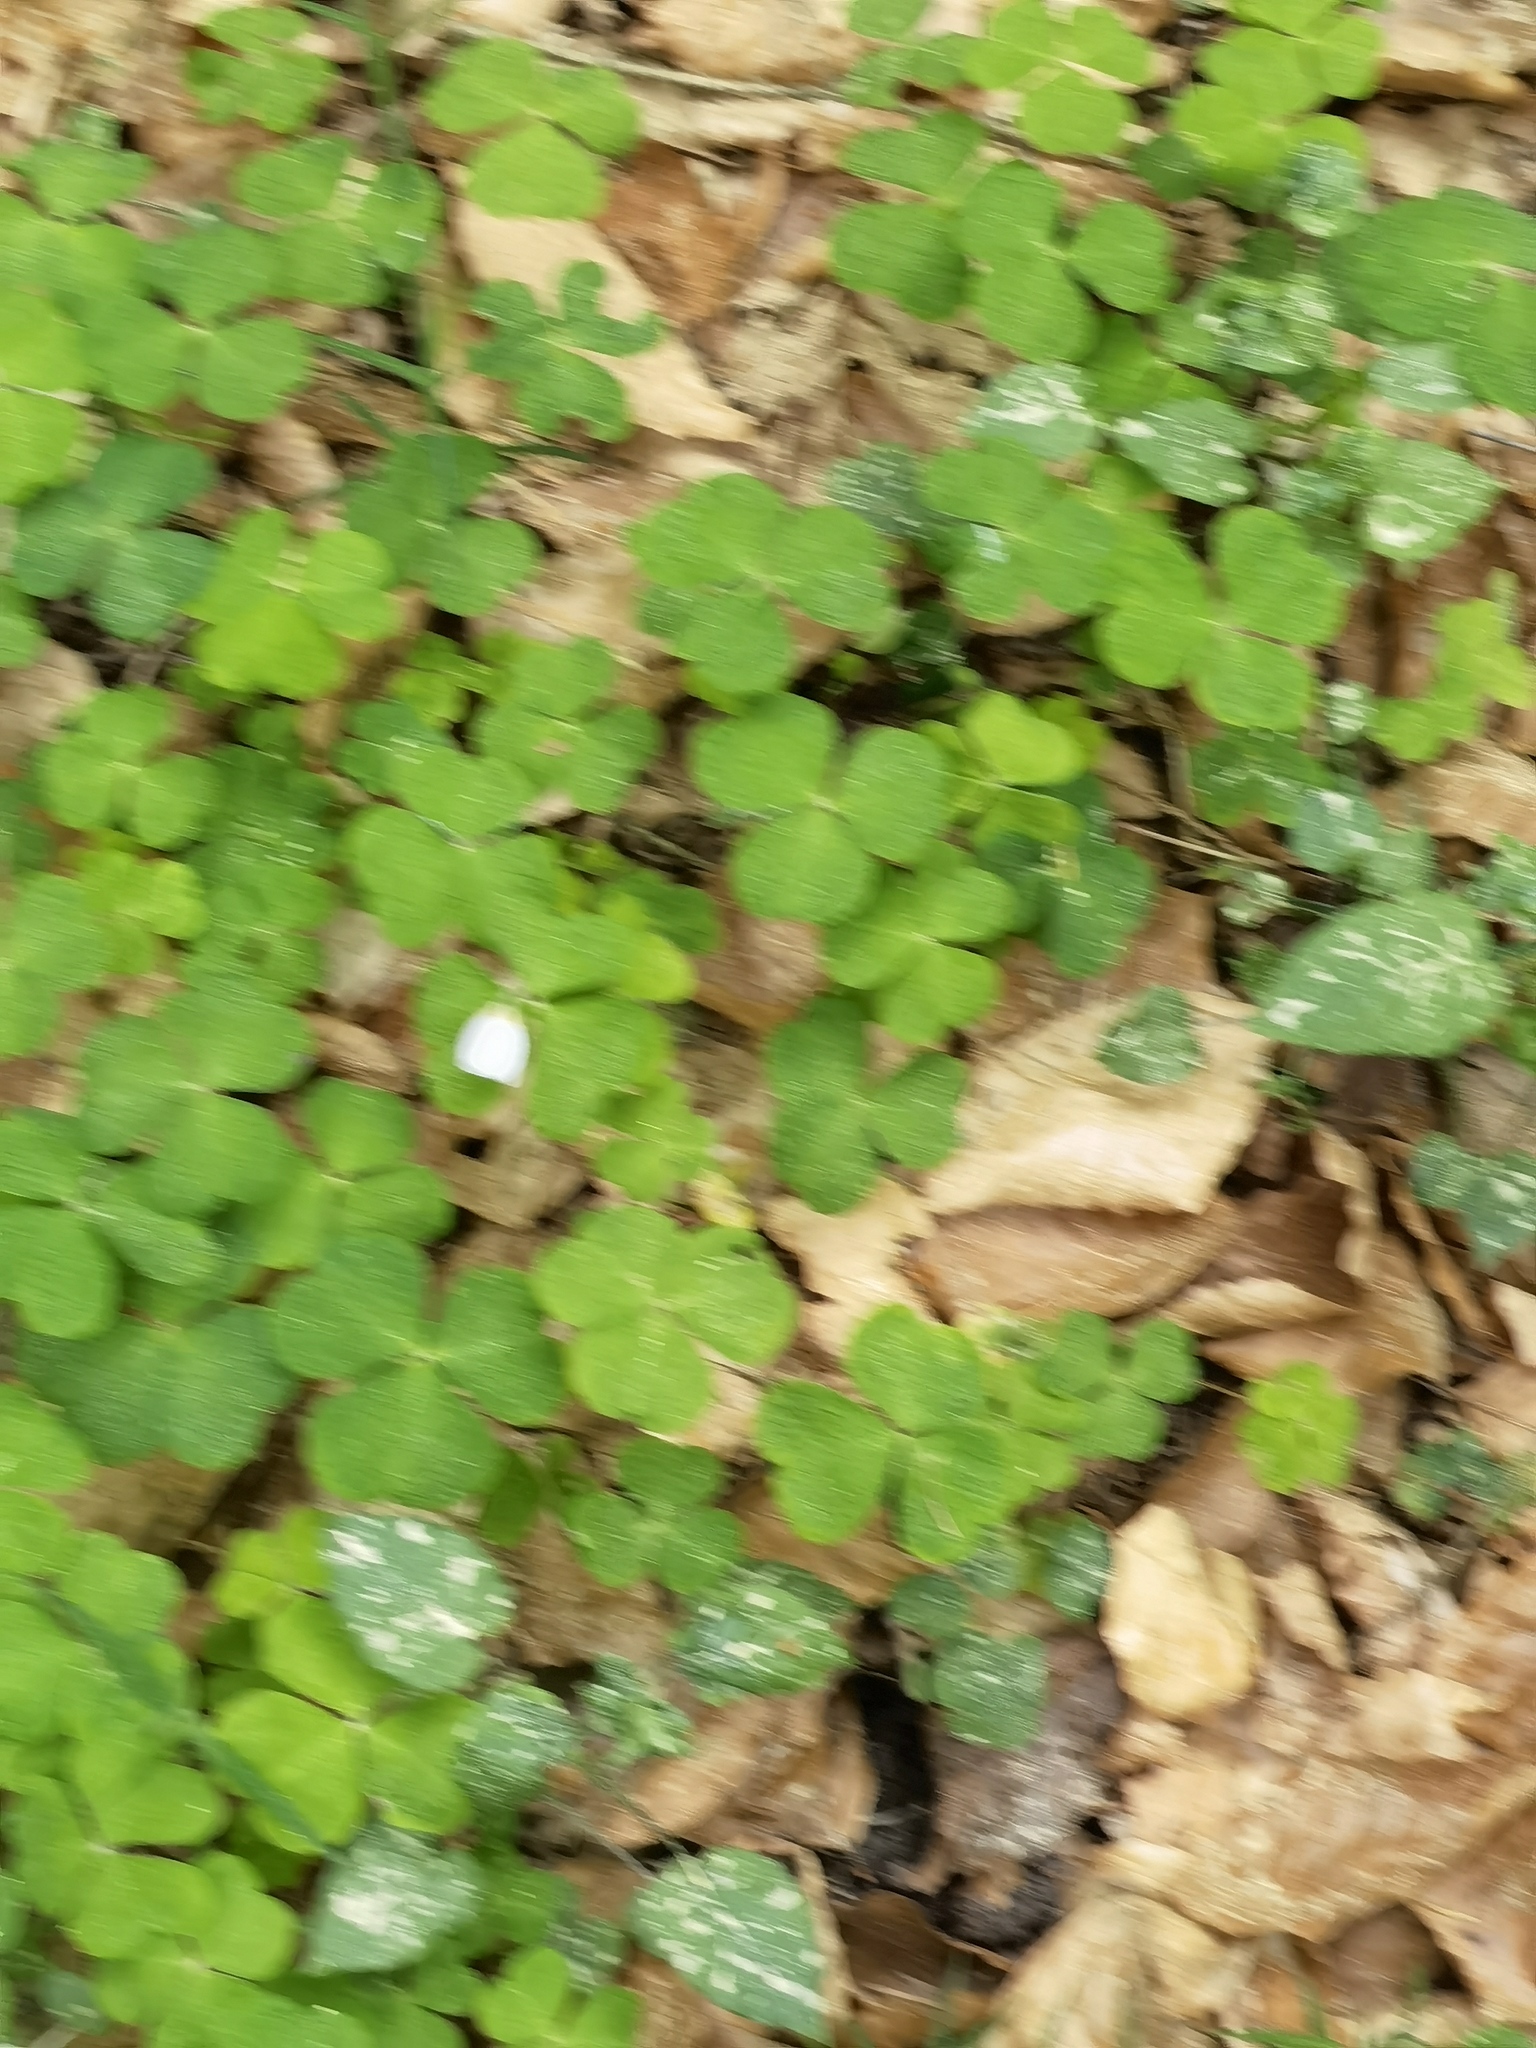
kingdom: Plantae
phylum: Tracheophyta
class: Magnoliopsida
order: Oxalidales
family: Oxalidaceae
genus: Oxalis
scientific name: Oxalis acetosella
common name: Wood-sorrel
